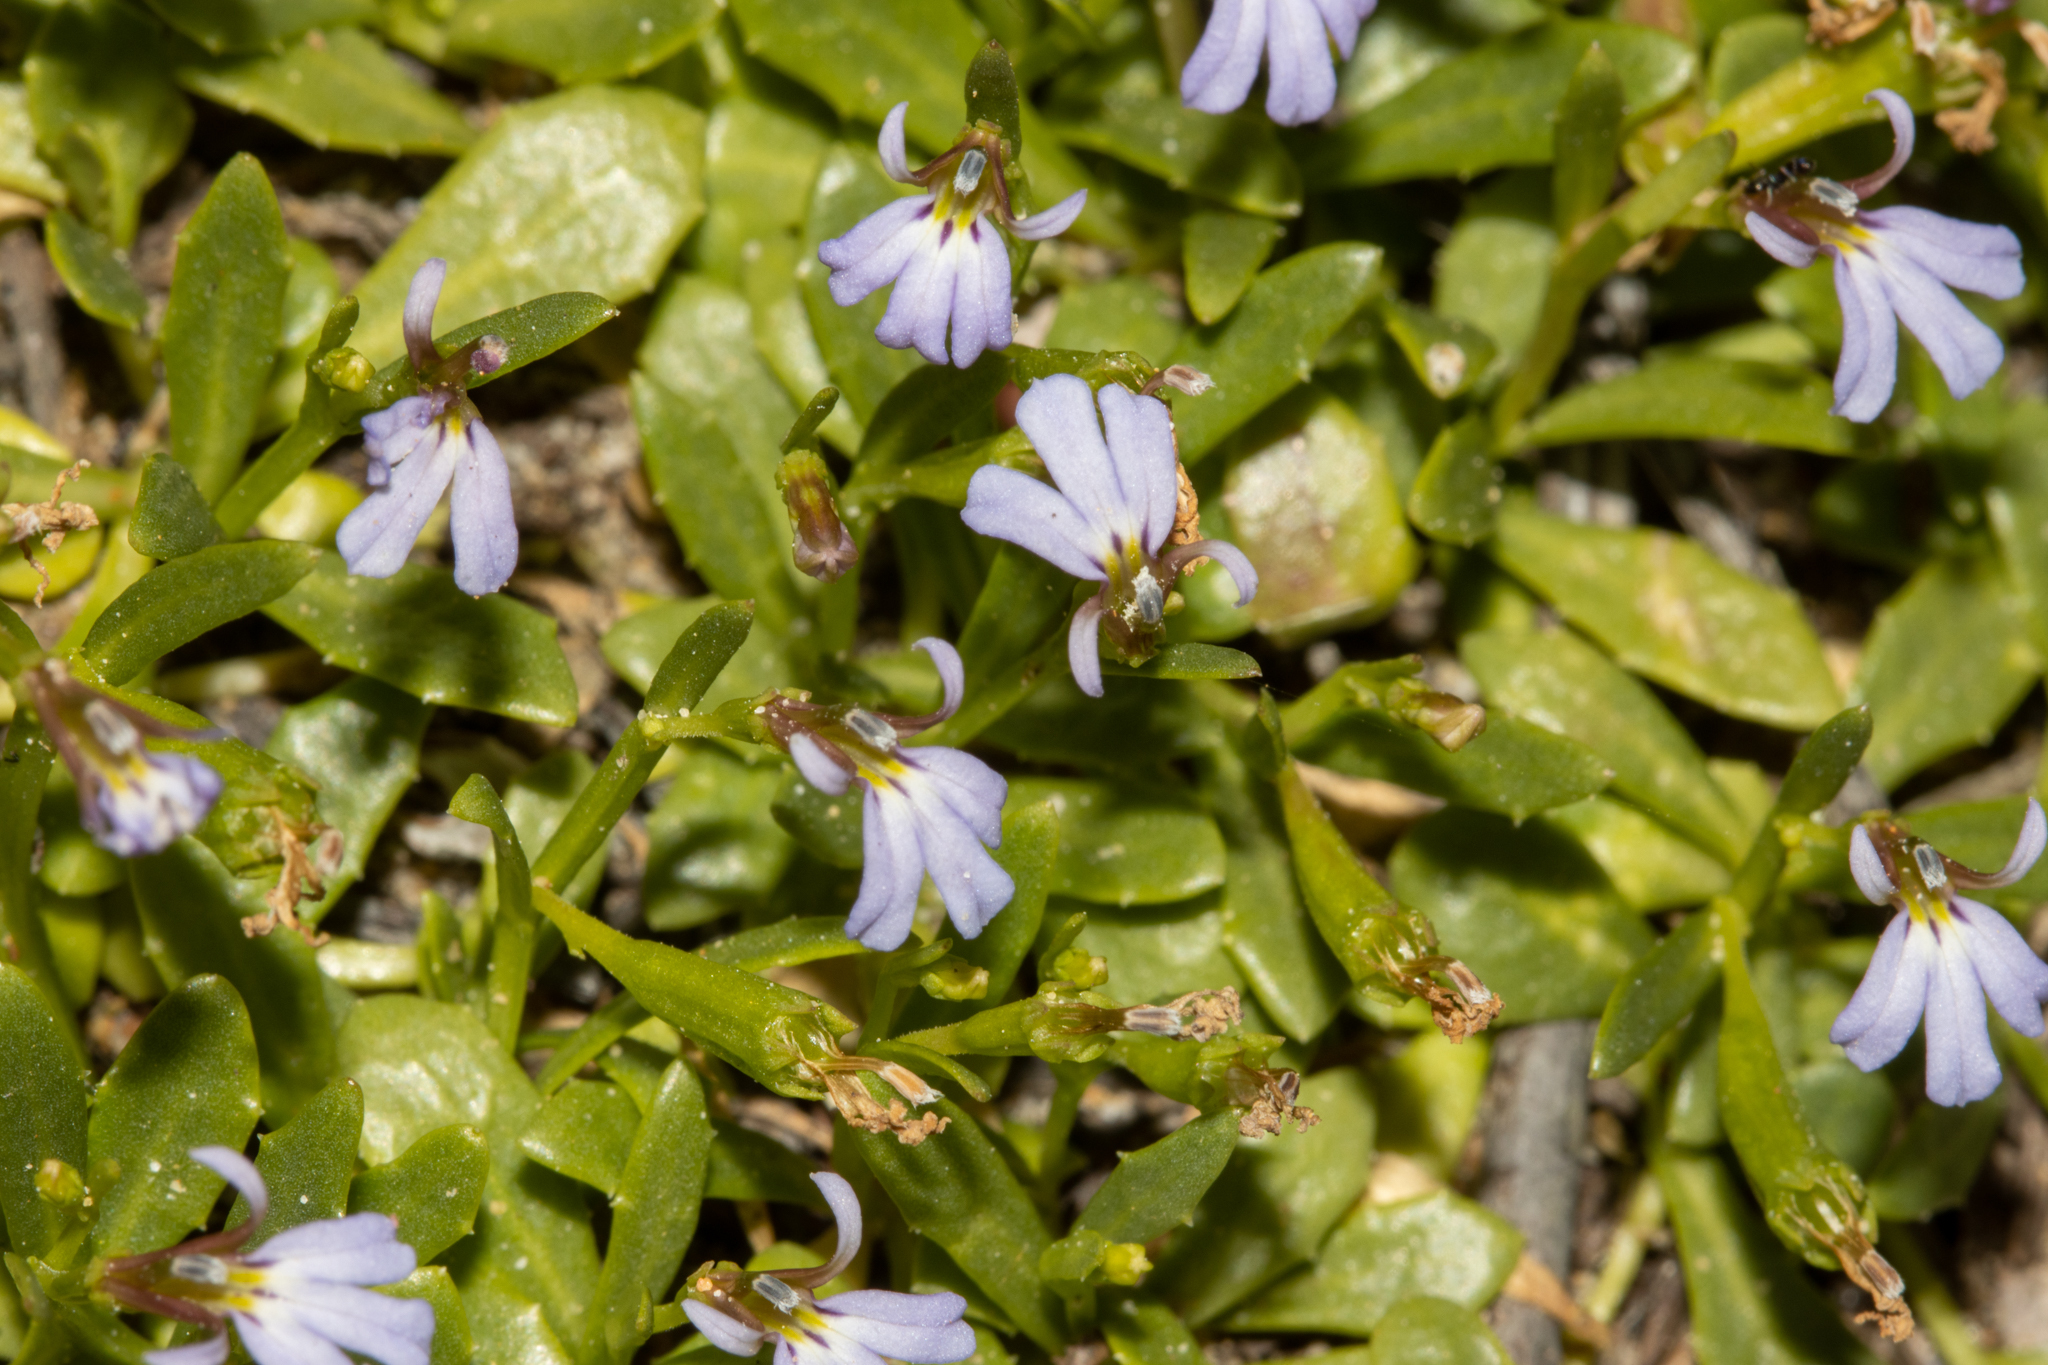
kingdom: Plantae
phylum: Tracheophyta
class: Magnoliopsida
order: Asterales
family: Campanulaceae
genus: Lobelia
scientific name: Lobelia anceps
